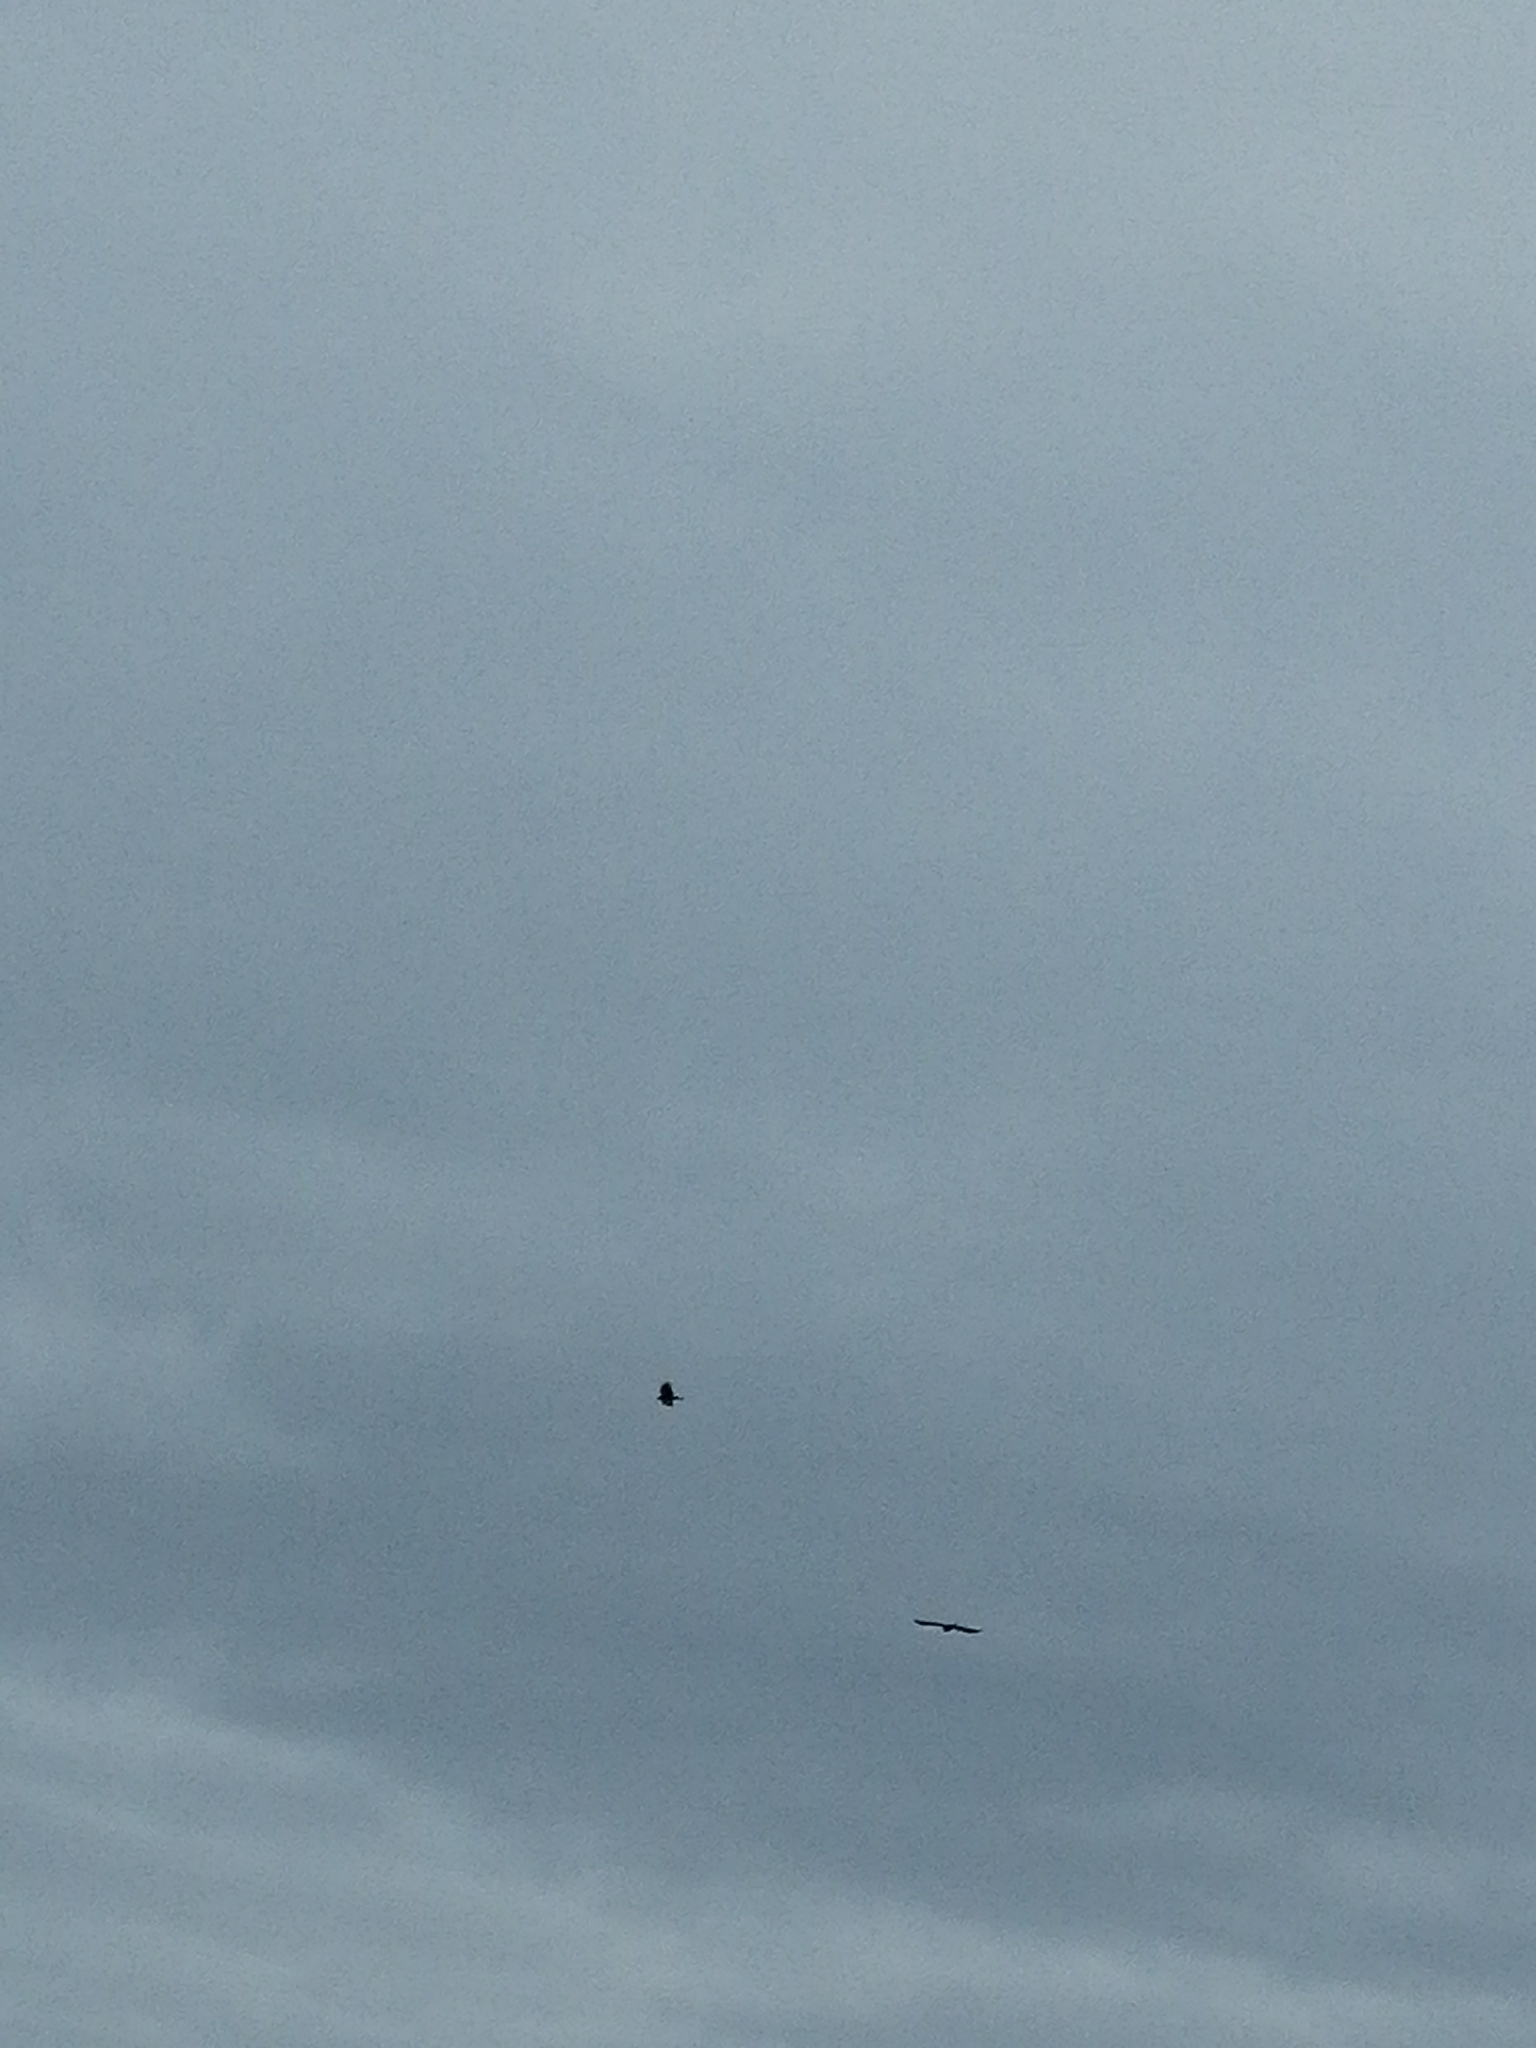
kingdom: Animalia
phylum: Chordata
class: Aves
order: Passeriformes
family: Corvidae
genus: Corvus
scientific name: Corvus corax
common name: Common raven
